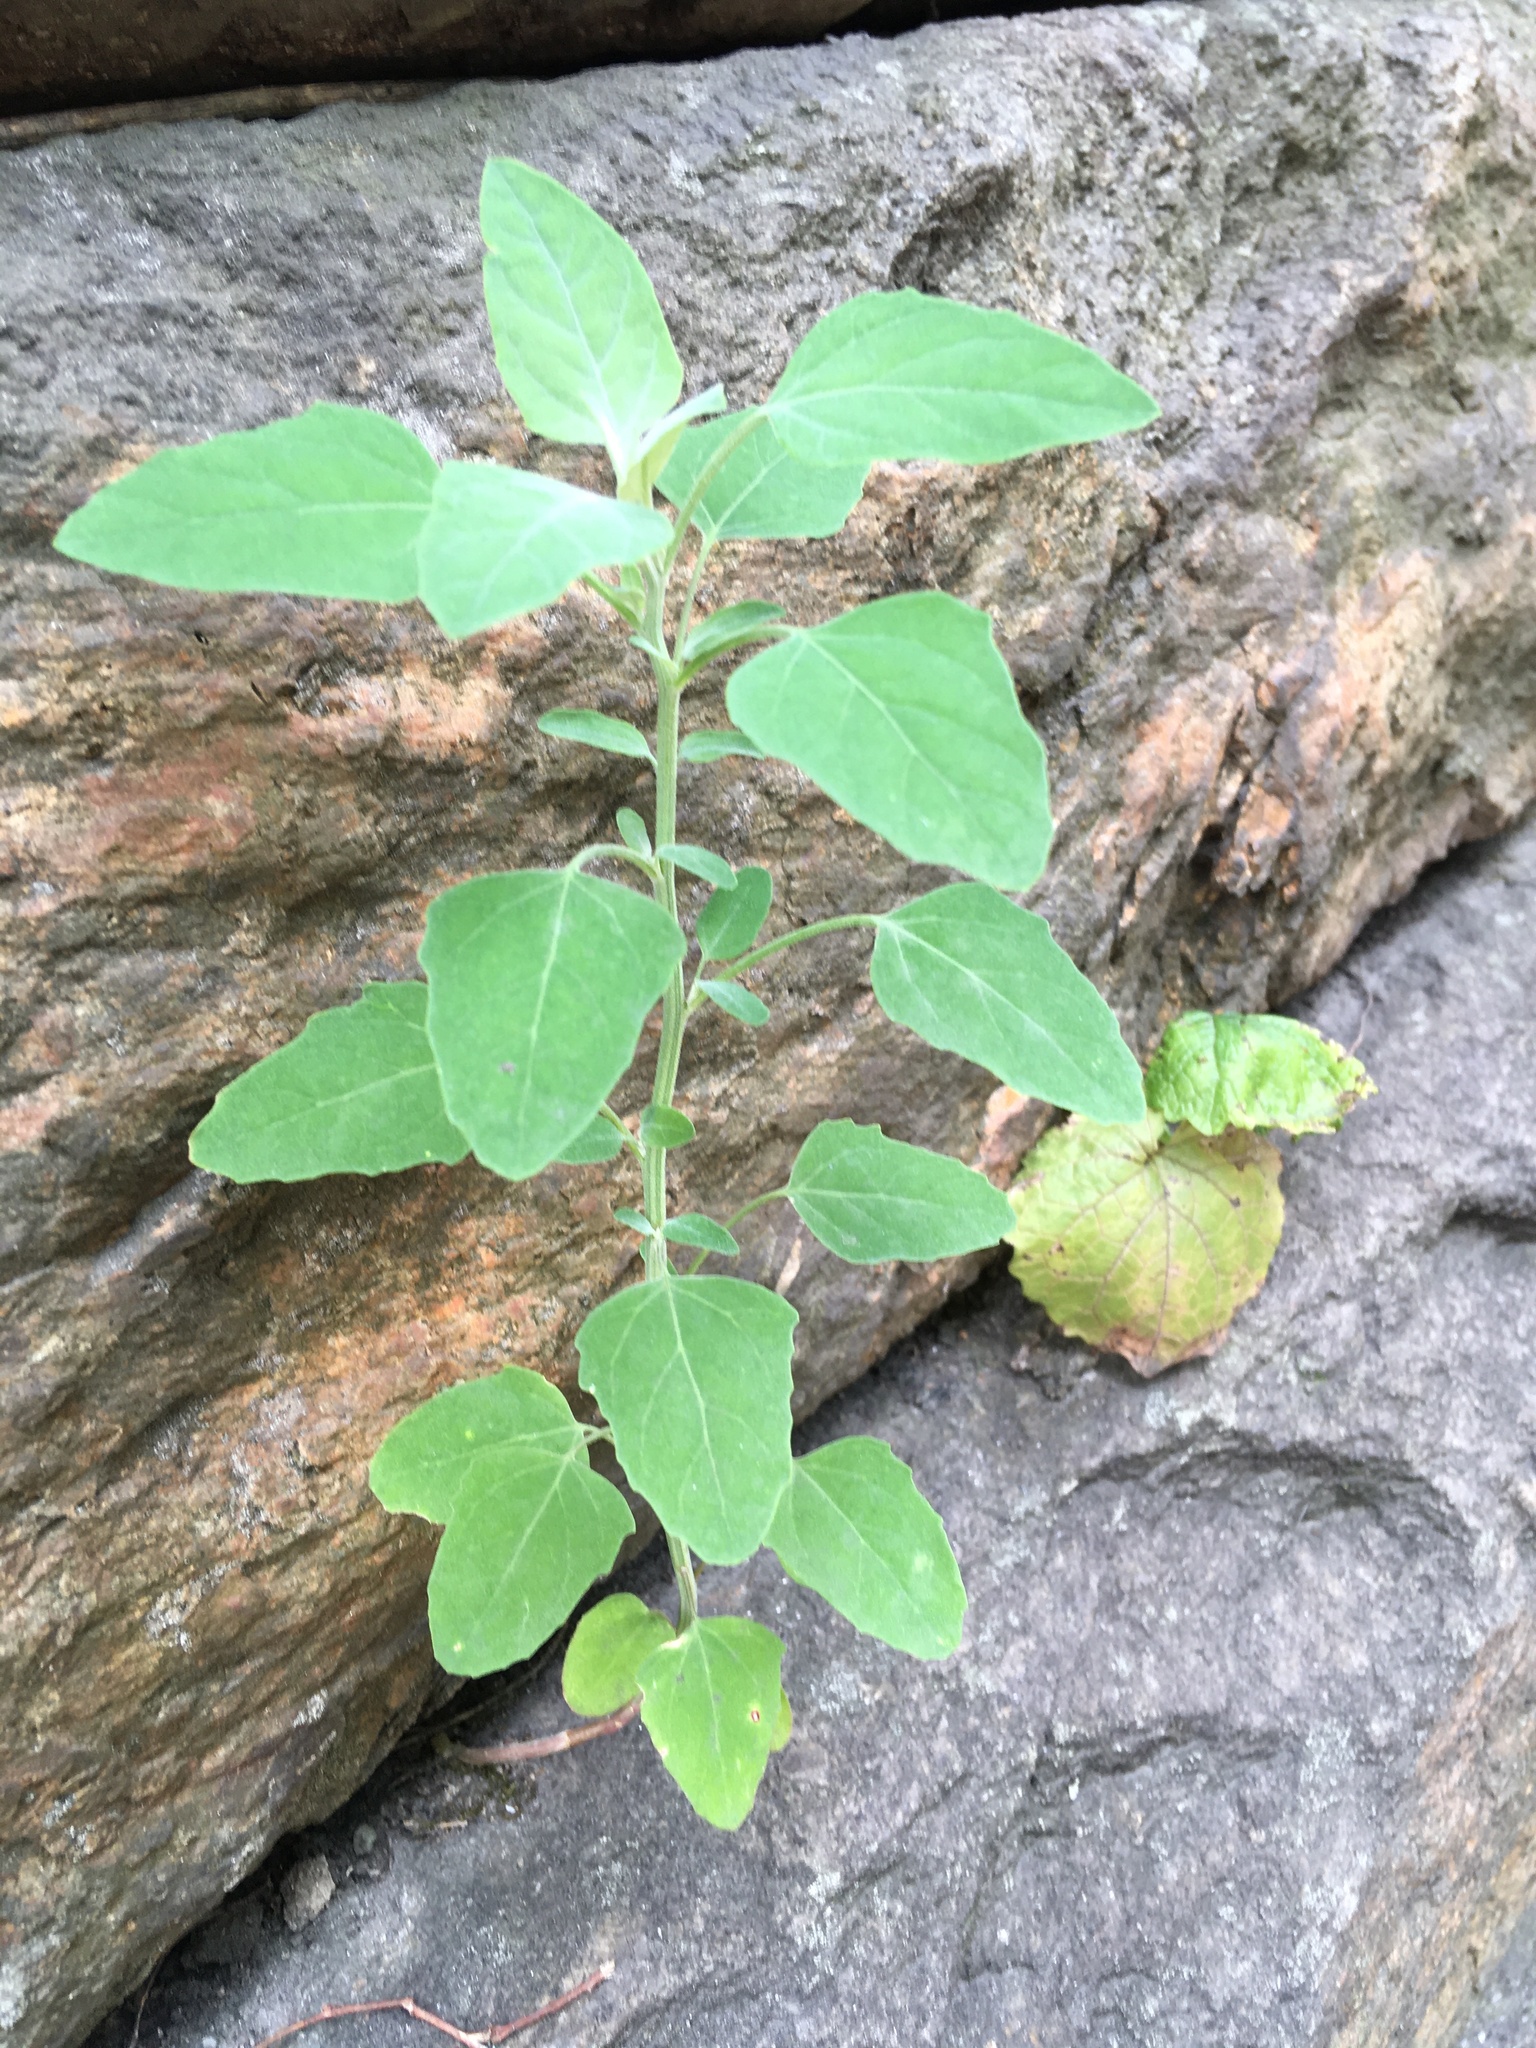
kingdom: Plantae
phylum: Tracheophyta
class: Magnoliopsida
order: Caryophyllales
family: Amaranthaceae
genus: Chenopodium
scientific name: Chenopodium album
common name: Fat-hen
